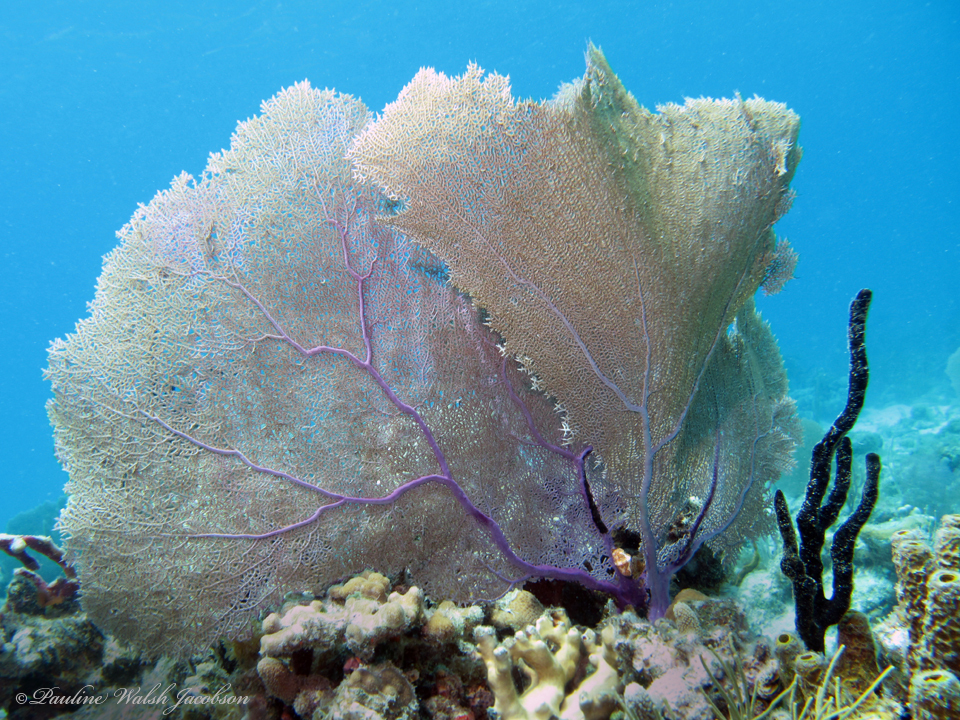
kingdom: Animalia
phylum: Cnidaria
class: Anthozoa
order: Malacalcyonacea
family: Gorgoniidae
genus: Gorgonia
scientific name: Gorgonia ventalina
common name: Common sea fan
